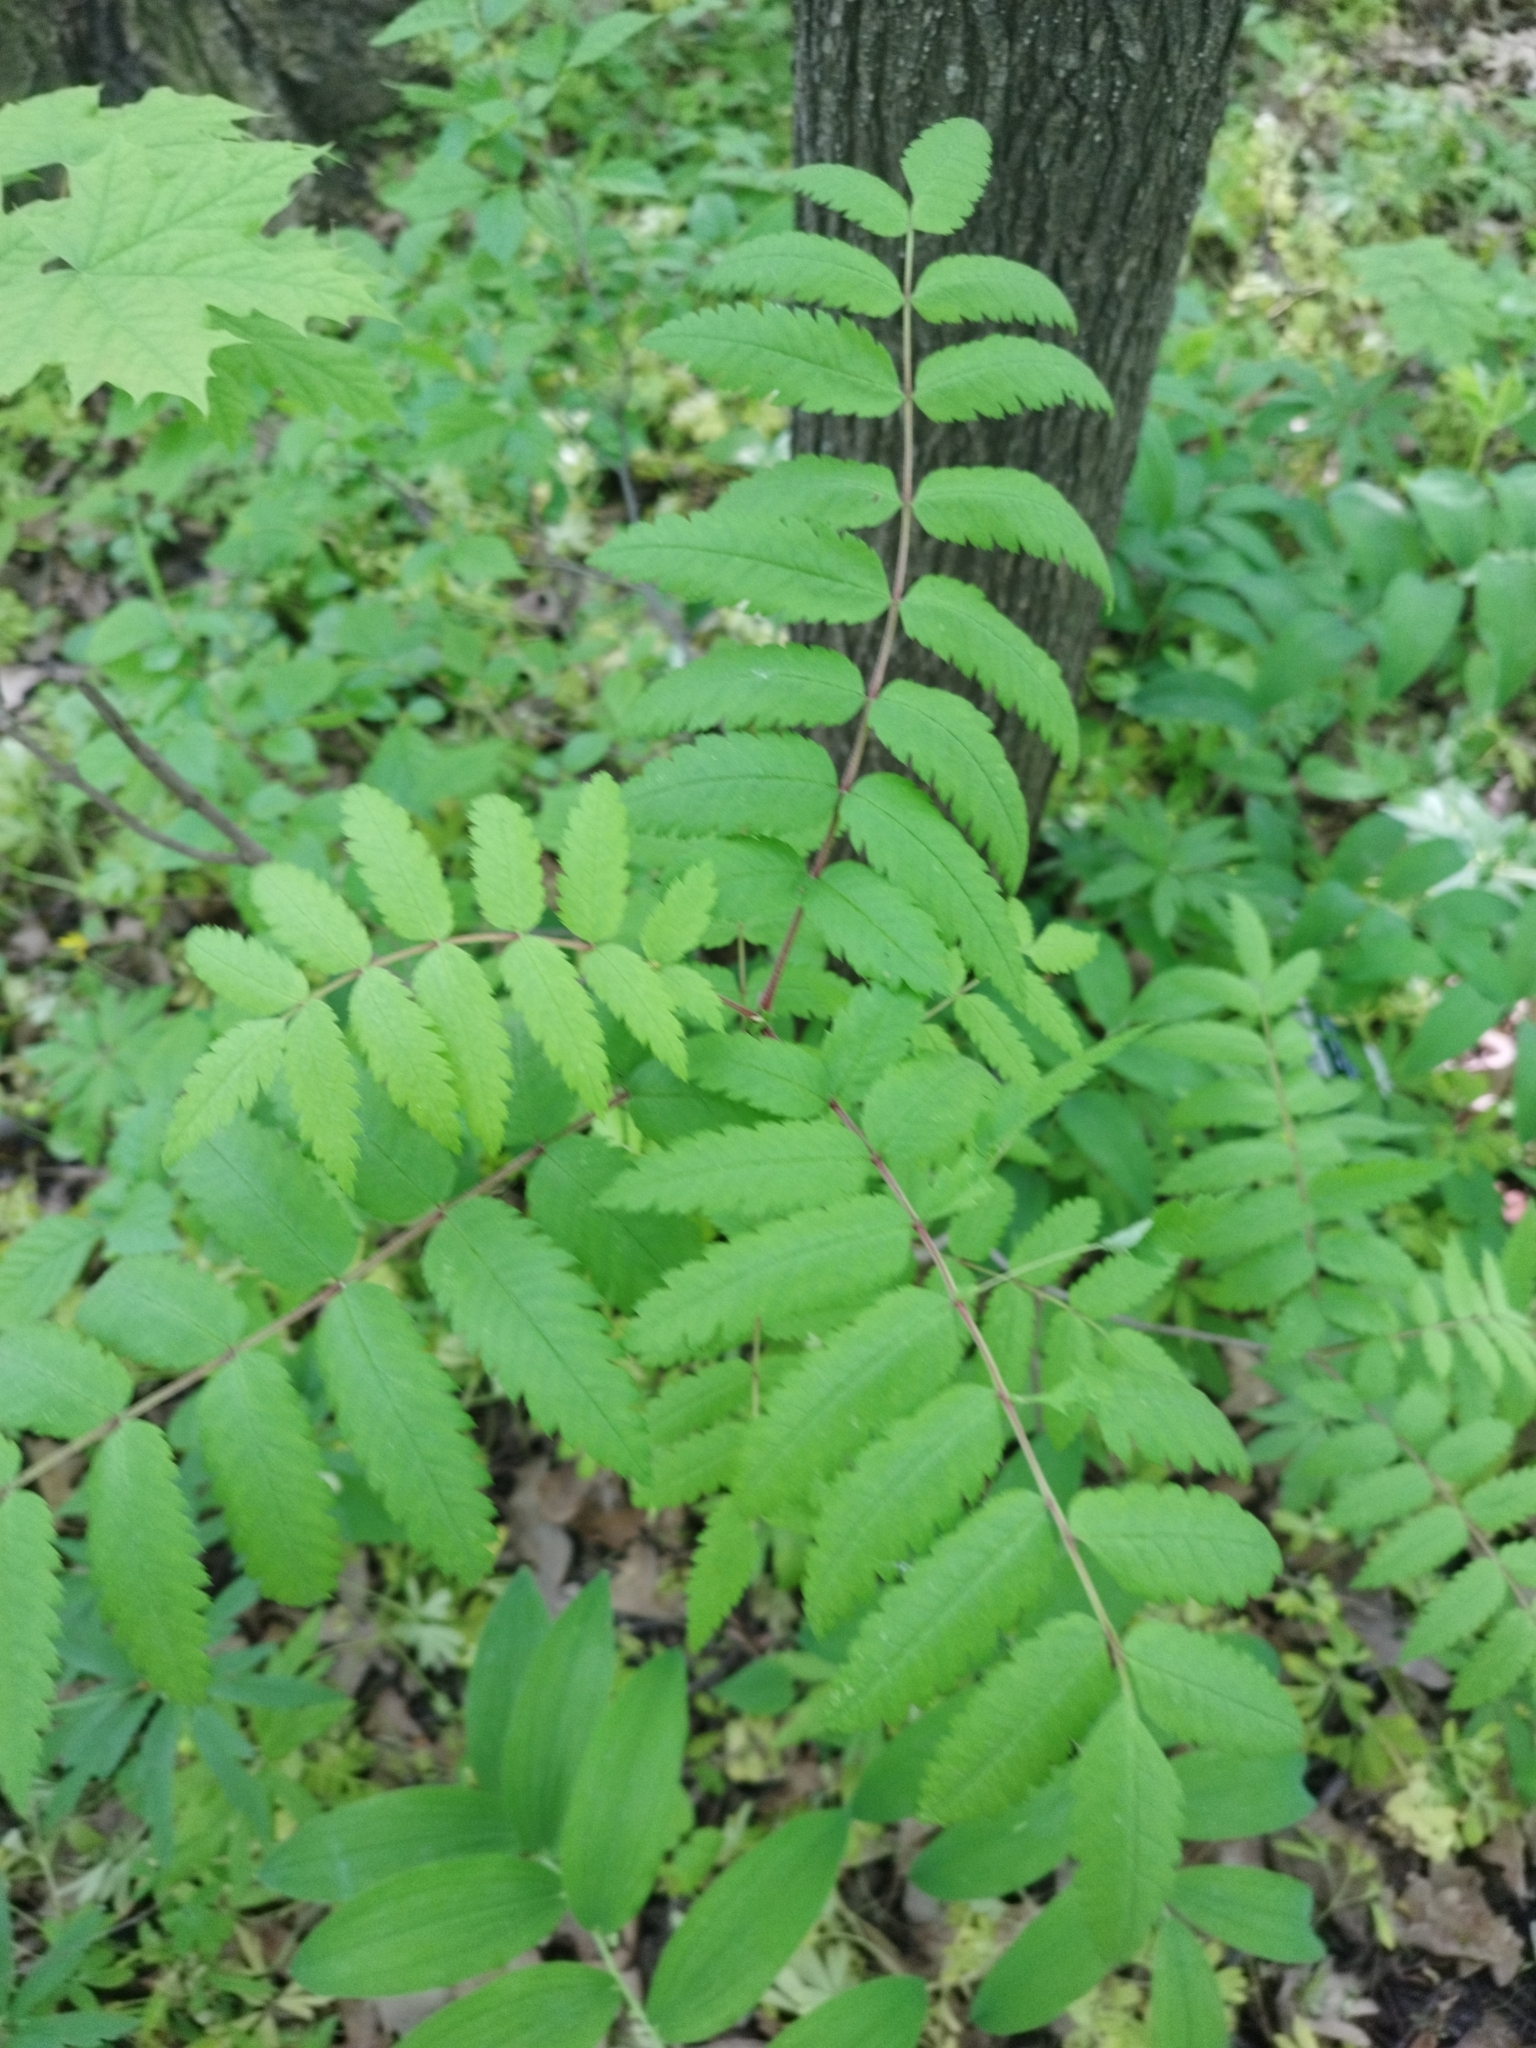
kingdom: Plantae
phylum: Tracheophyta
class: Magnoliopsida
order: Rosales
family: Rosaceae
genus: Sorbus
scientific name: Sorbus aucuparia
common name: Rowan
